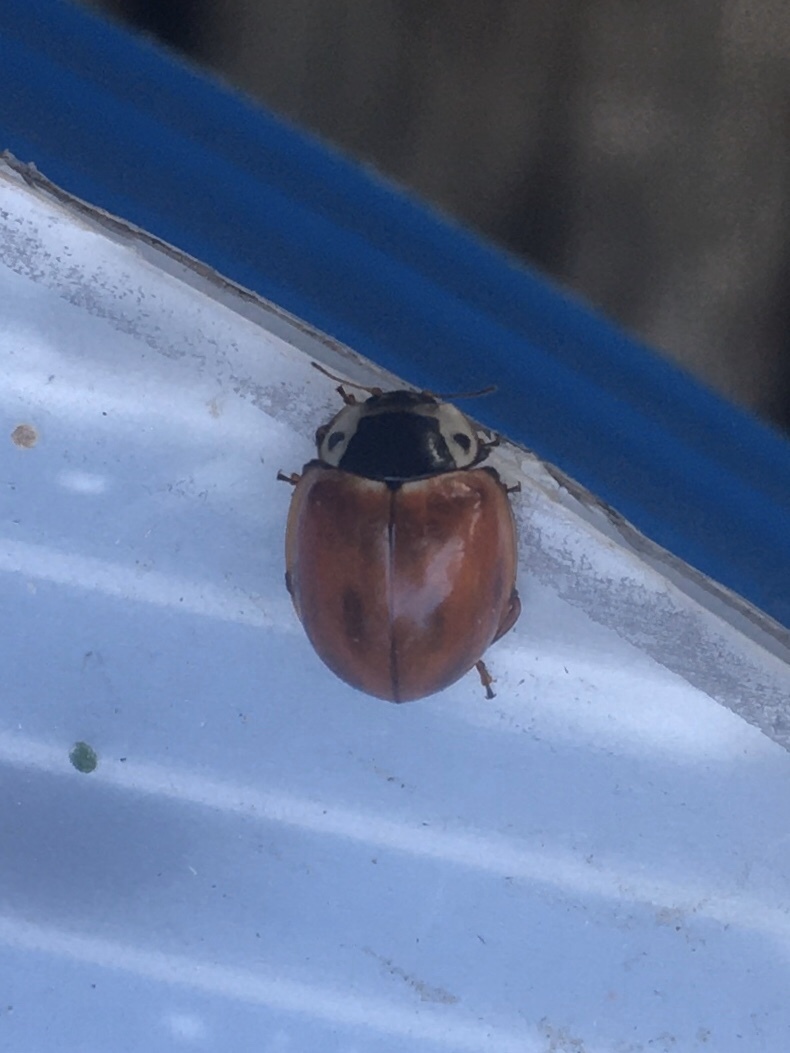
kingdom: Animalia
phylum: Arthropoda
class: Insecta
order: Coleoptera
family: Coccinellidae
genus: Myzia
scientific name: Myzia pullata
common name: Streaked lady beetle
